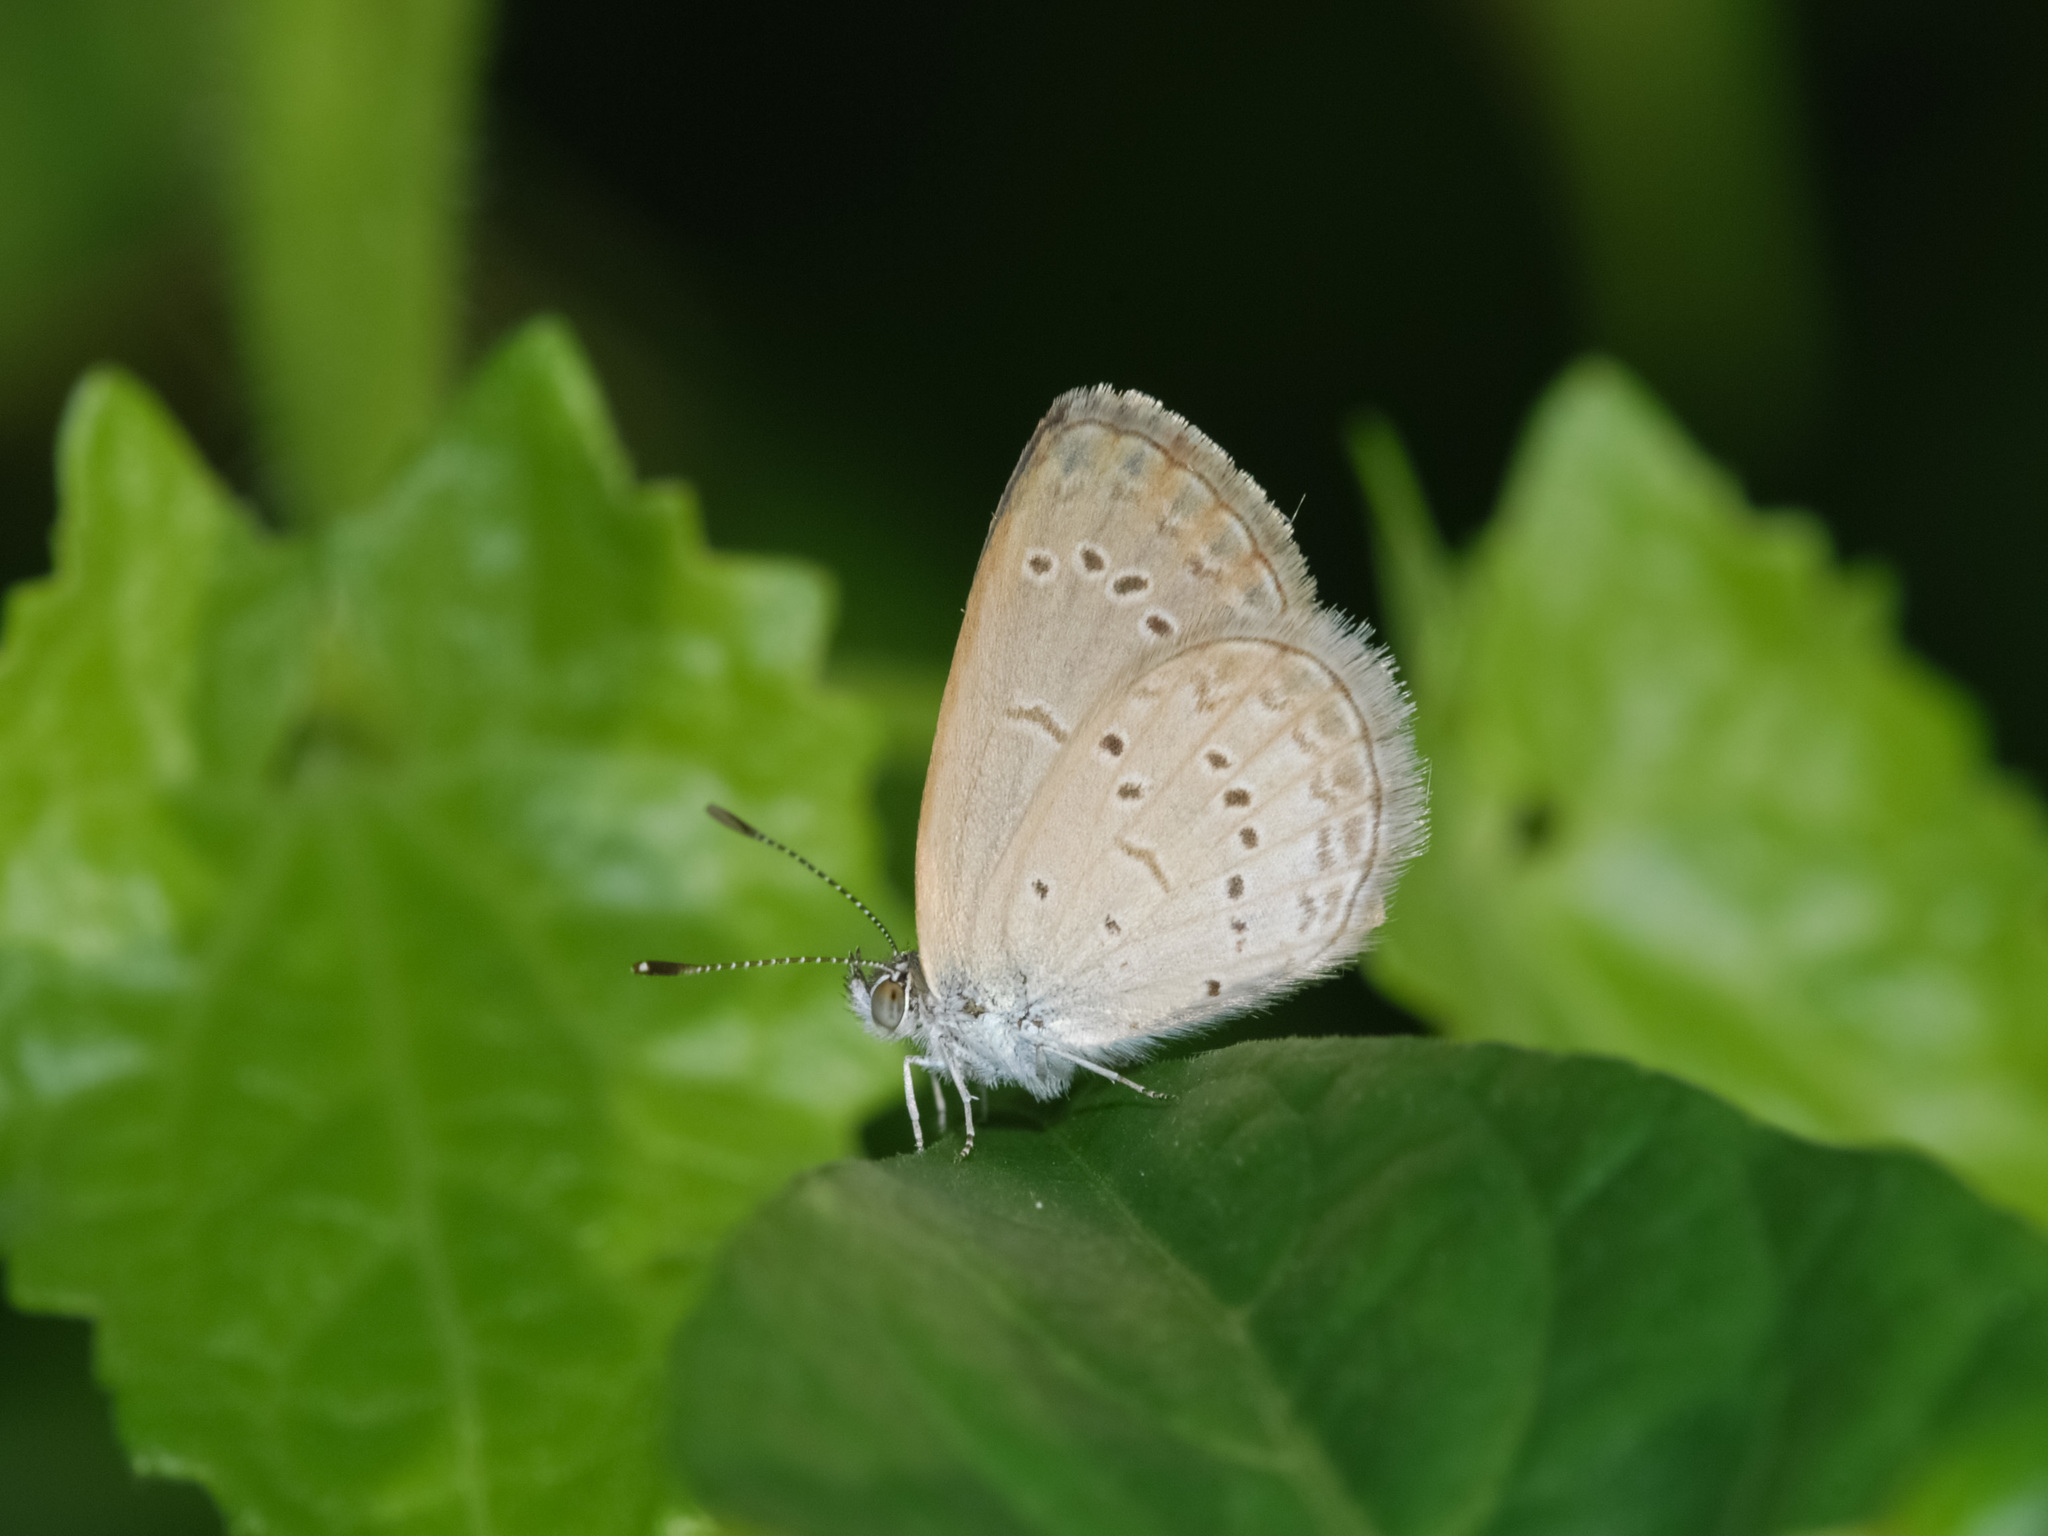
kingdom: Animalia
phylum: Arthropoda
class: Insecta
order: Lepidoptera
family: Lycaenidae
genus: Zizina
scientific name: Zizina otis
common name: Lesser grass blue
